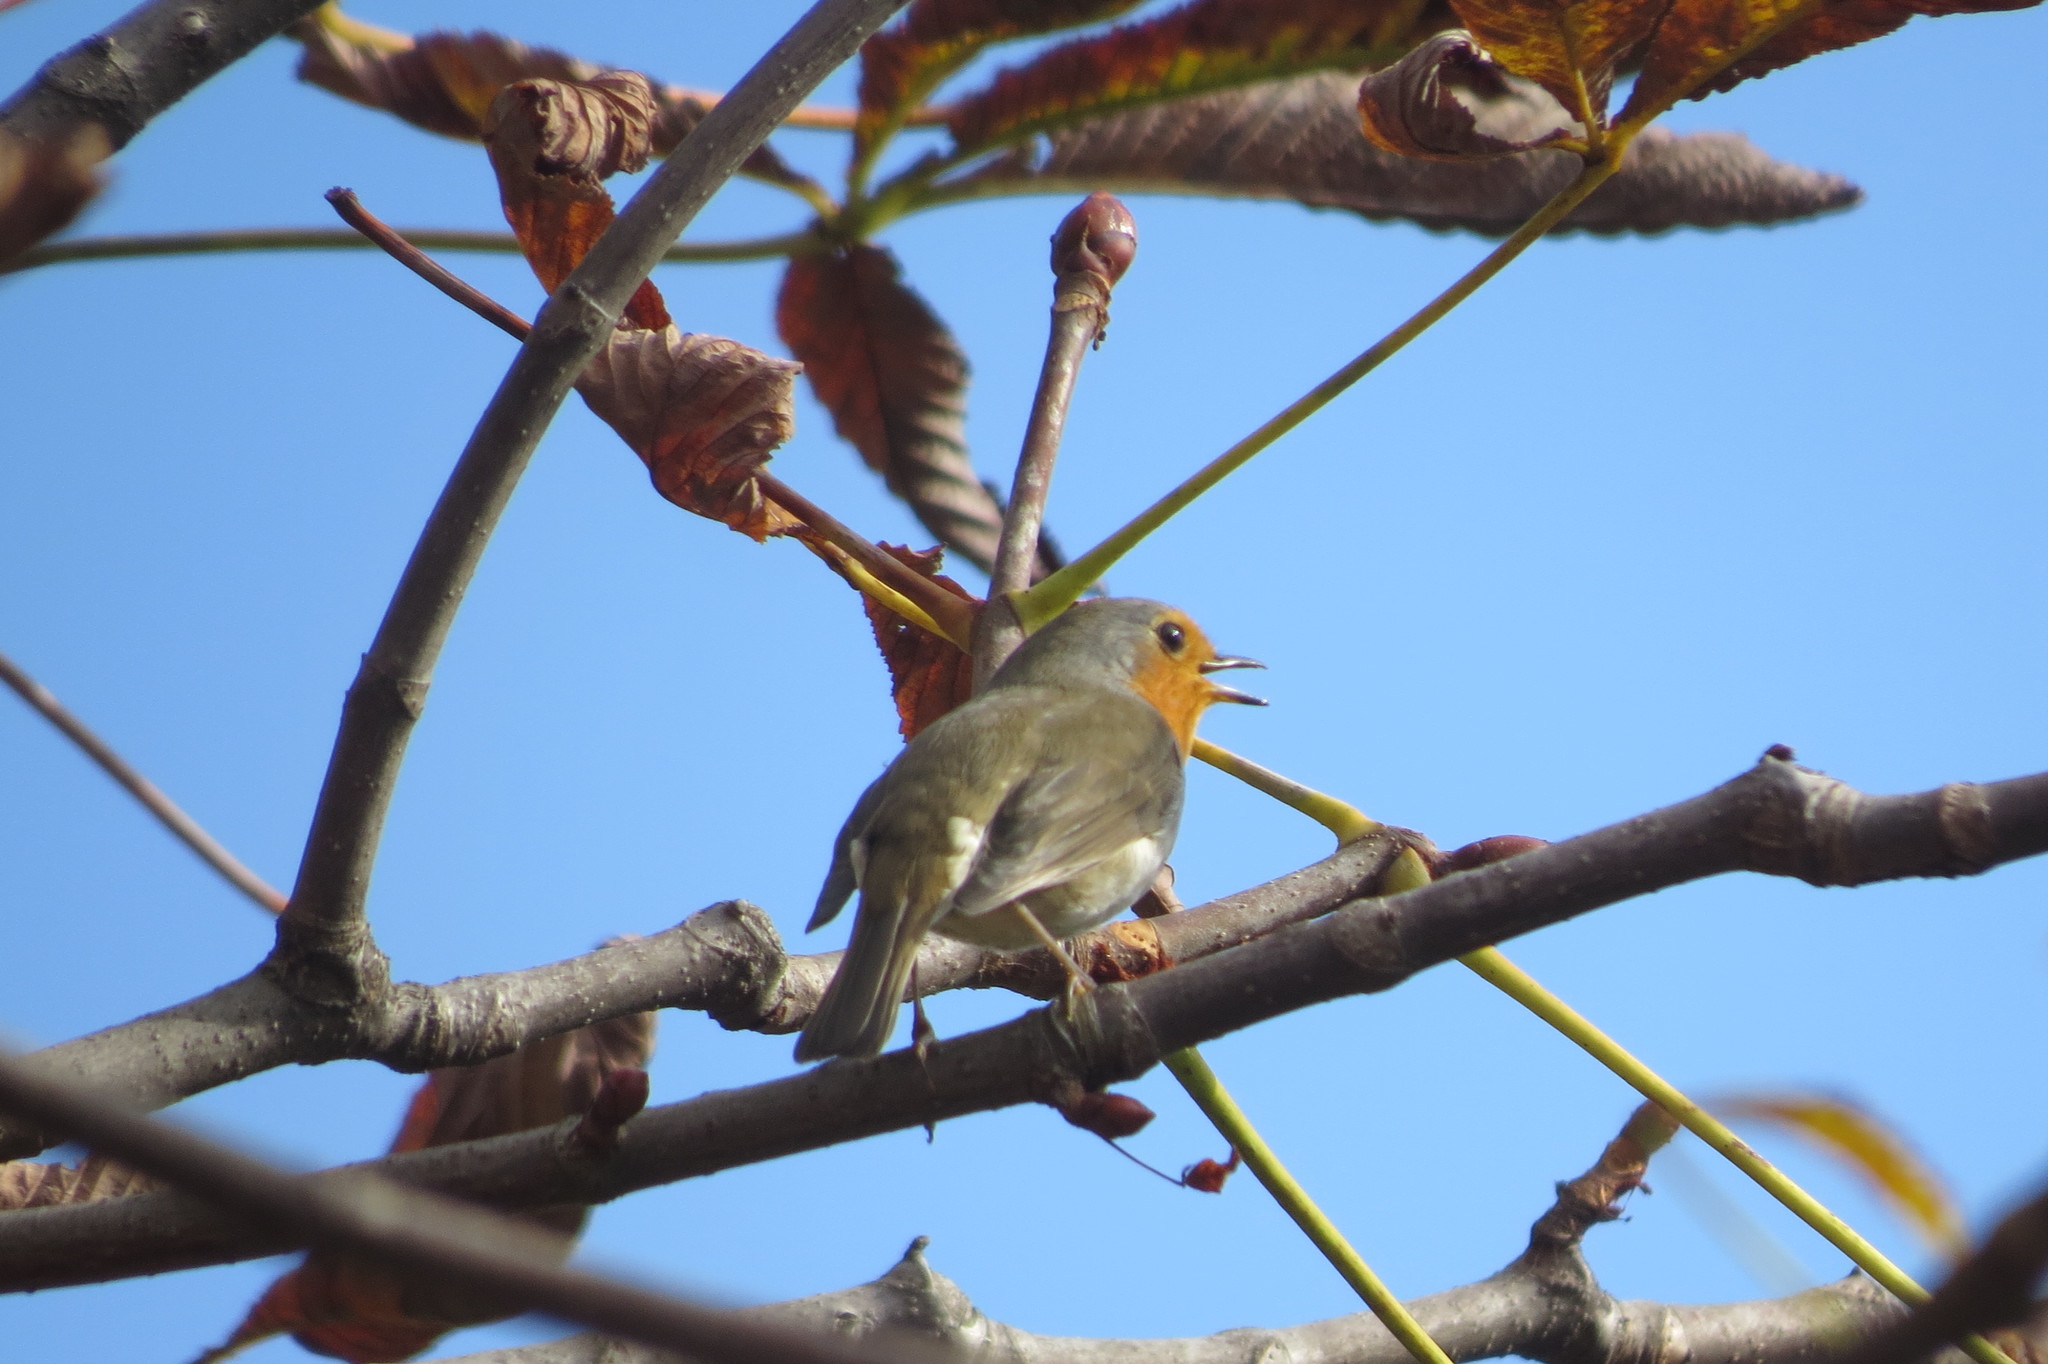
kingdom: Animalia
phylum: Chordata
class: Aves
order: Passeriformes
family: Muscicapidae
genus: Erithacus
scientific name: Erithacus rubecula
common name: European robin
